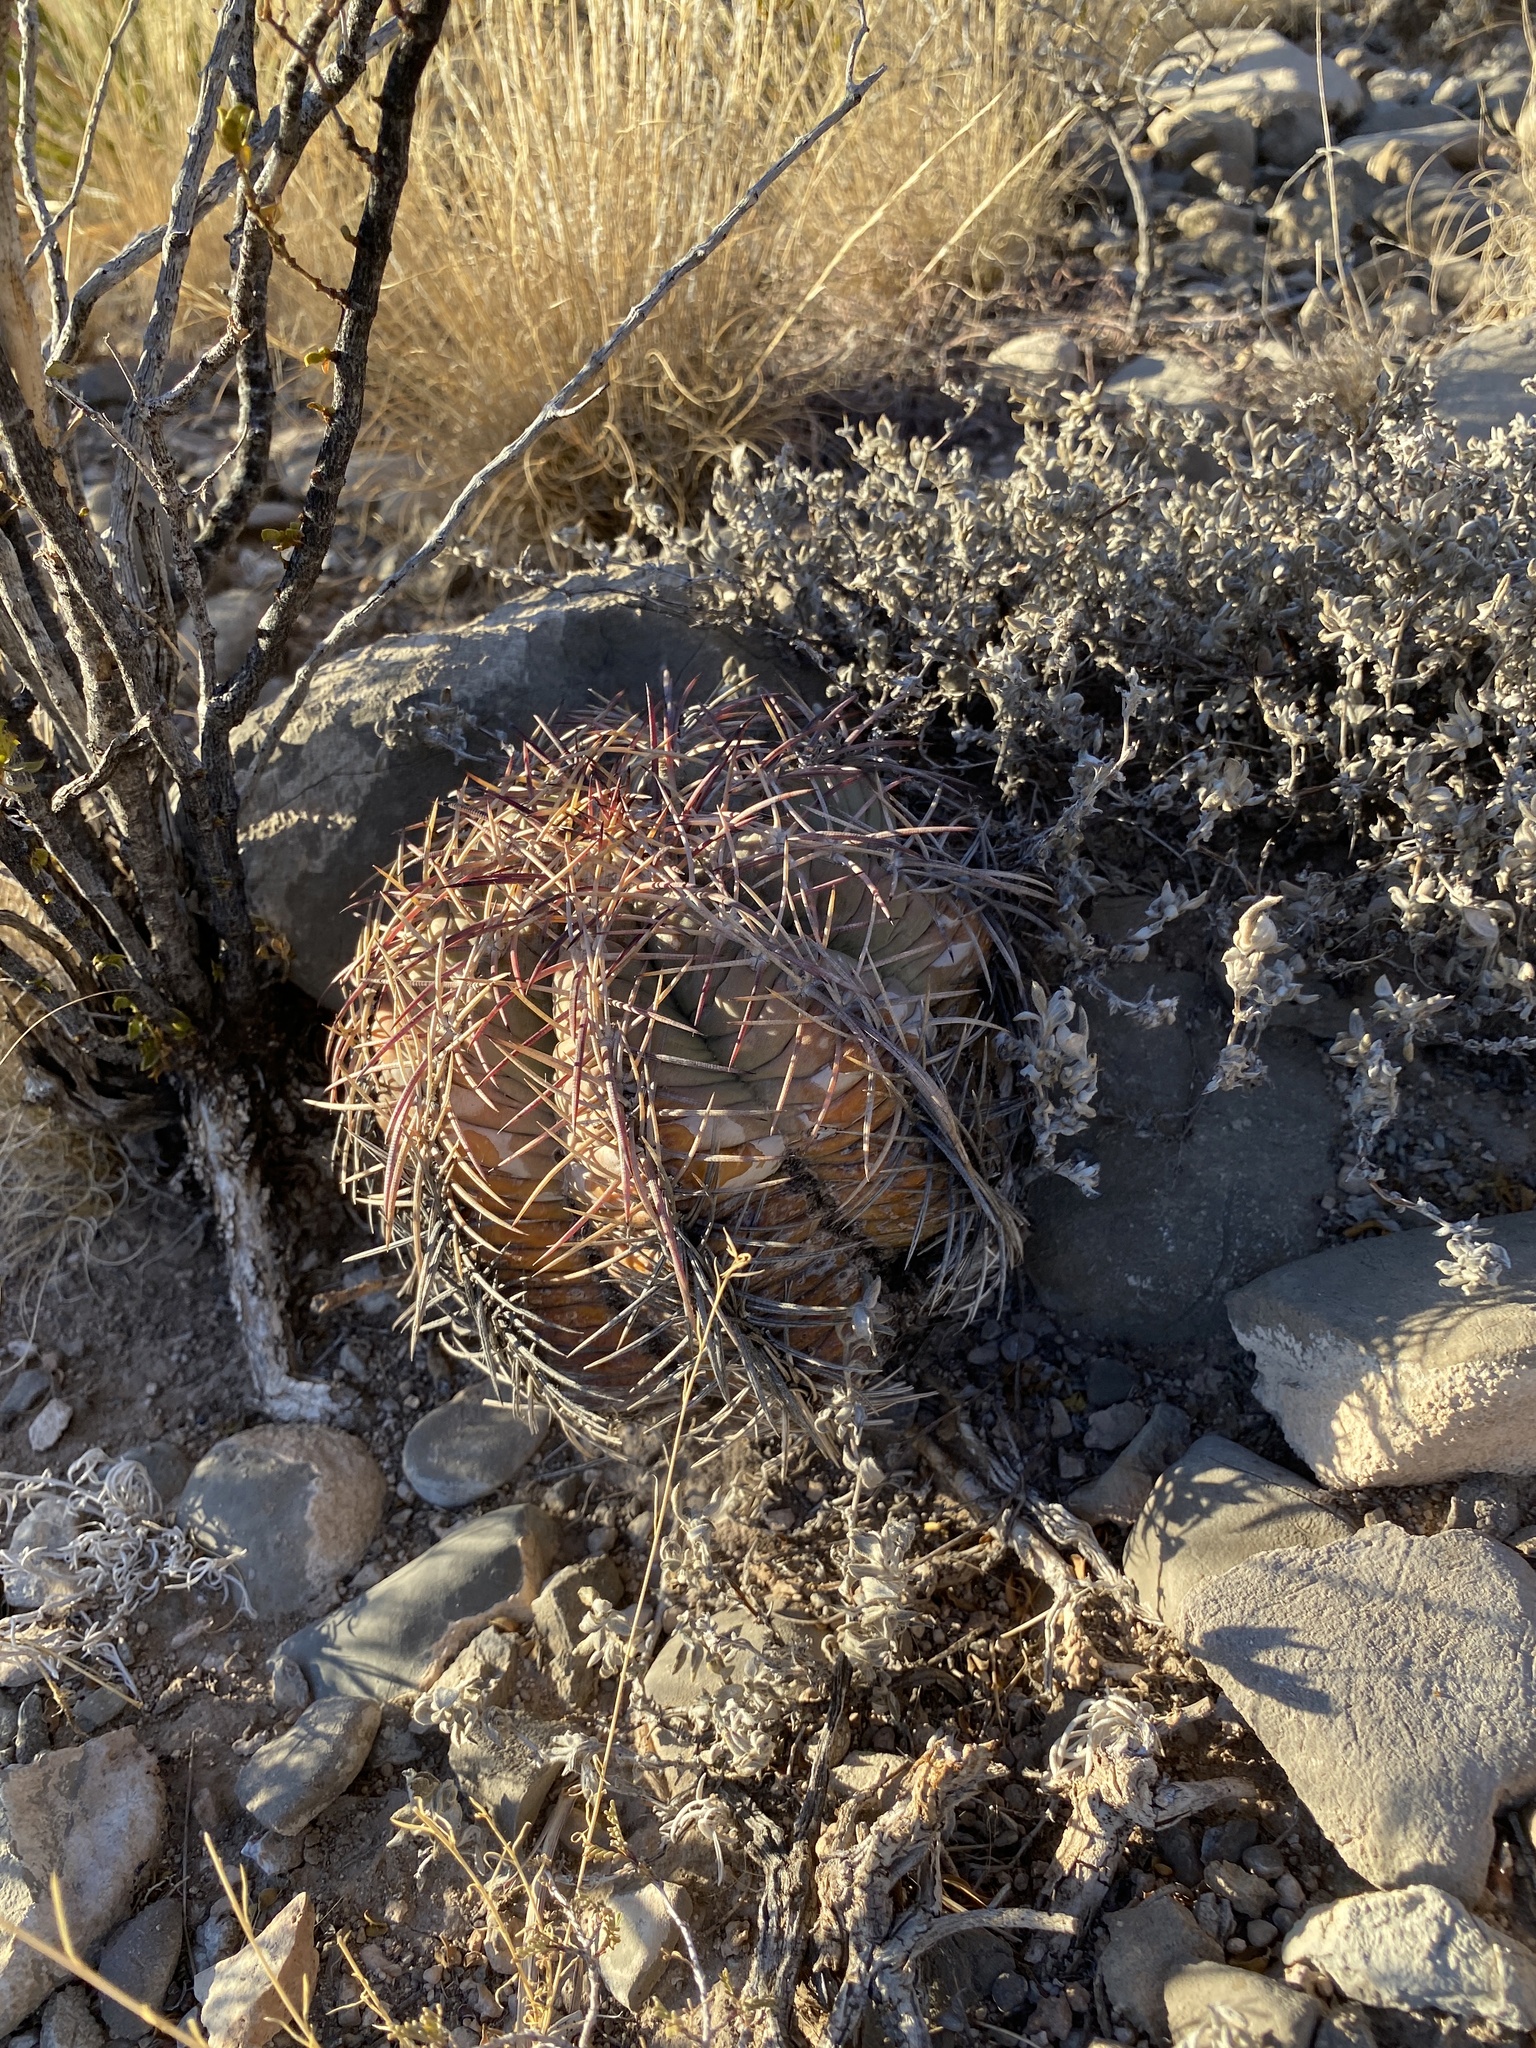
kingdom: Plantae
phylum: Tracheophyta
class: Magnoliopsida
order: Caryophyllales
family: Cactaceae
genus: Echinocactus
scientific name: Echinocactus horizonthalonius
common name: Devilshead
